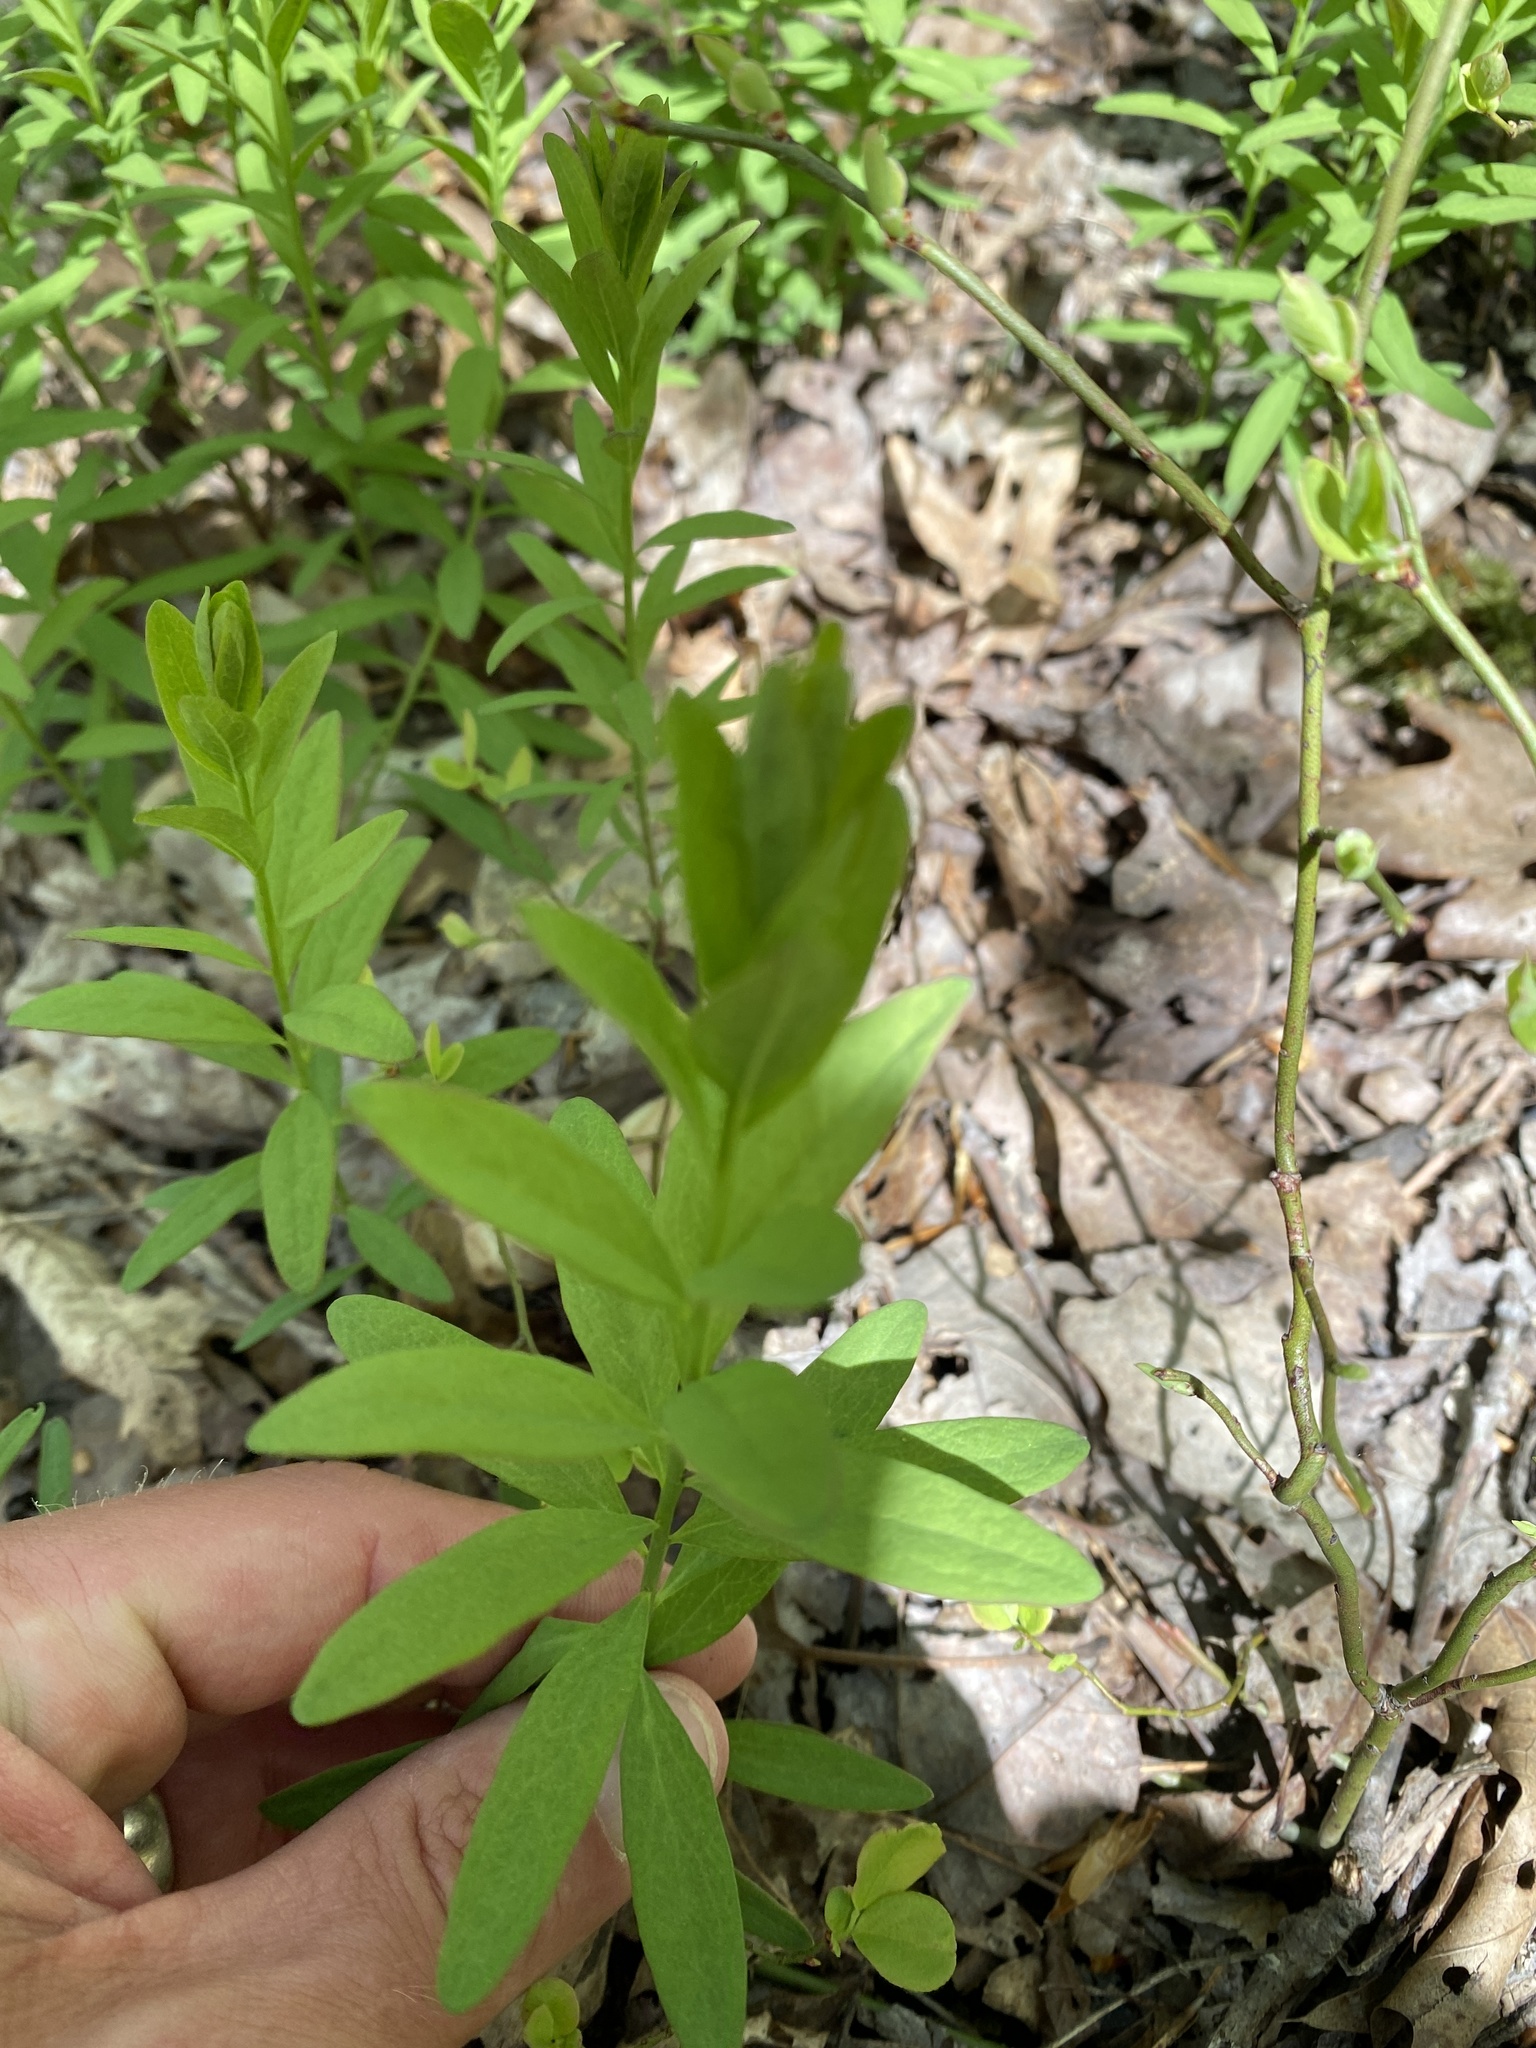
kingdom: Plantae
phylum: Tracheophyta
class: Magnoliopsida
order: Santalales
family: Comandraceae
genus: Comandra
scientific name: Comandra umbellata
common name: Bastard toadflax
